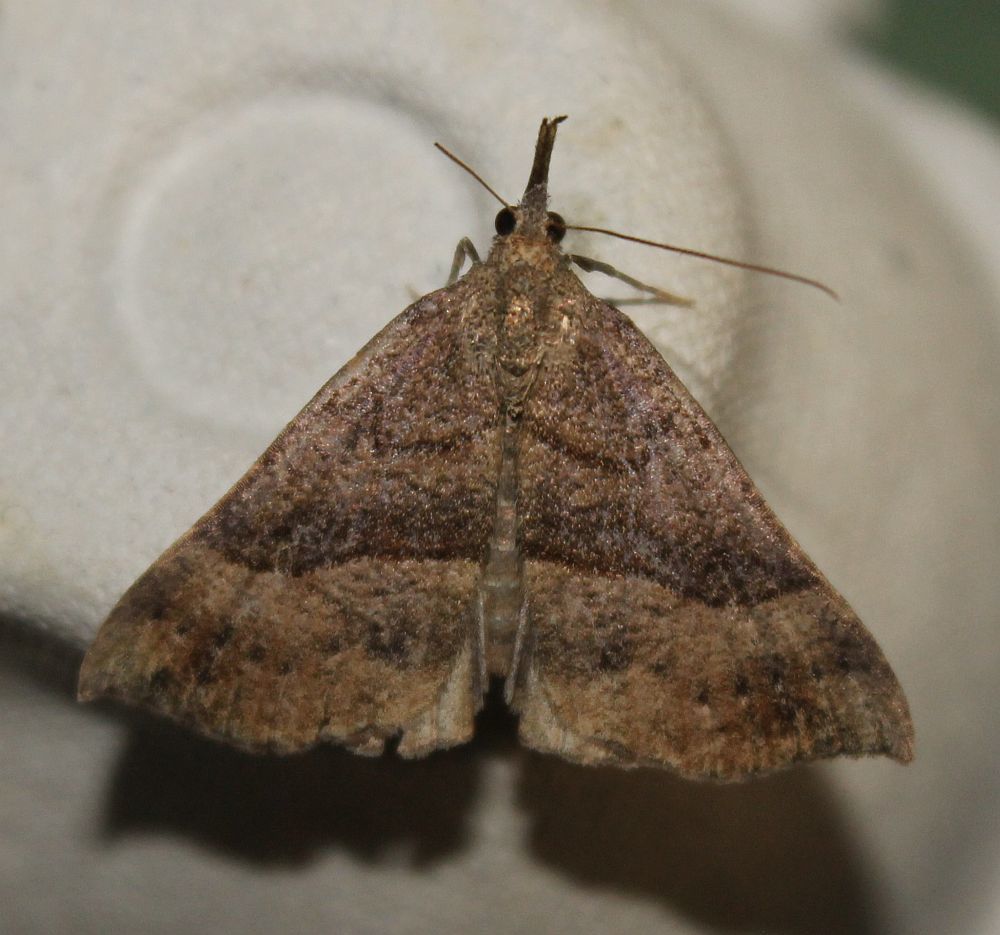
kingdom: Animalia
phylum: Arthropoda
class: Insecta
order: Lepidoptera
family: Erebidae
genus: Hypena
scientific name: Hypena proboscidalis
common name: Snout
